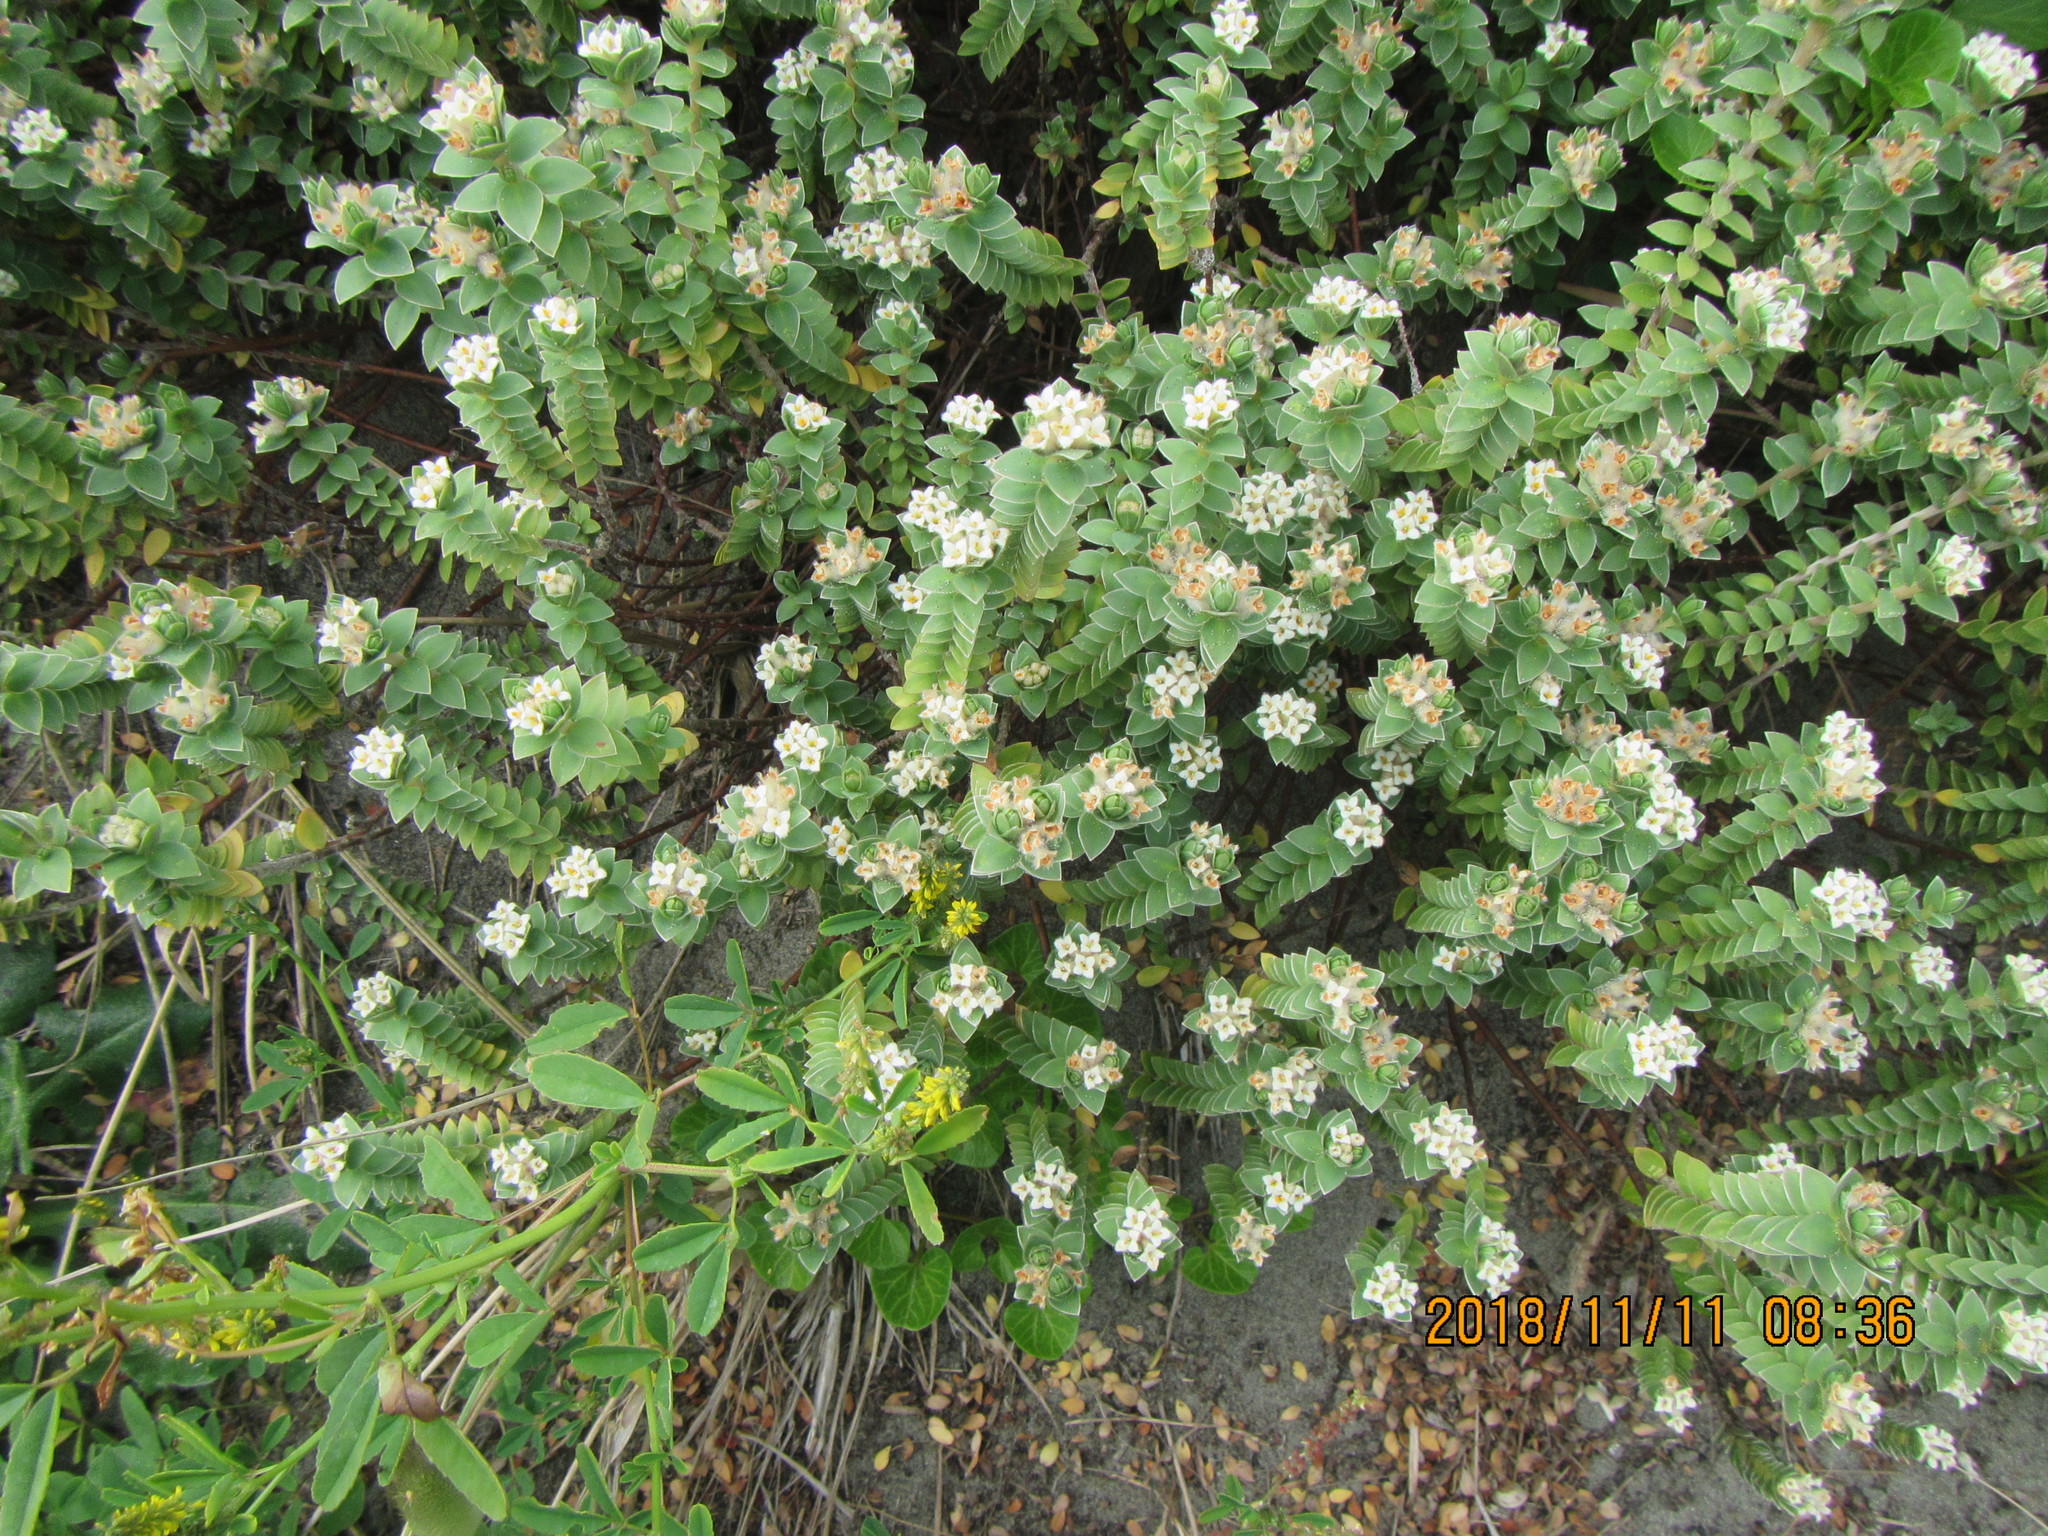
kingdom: Plantae
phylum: Tracheophyta
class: Magnoliopsida
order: Malvales
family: Thymelaeaceae
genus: Pimelea
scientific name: Pimelea villosa
